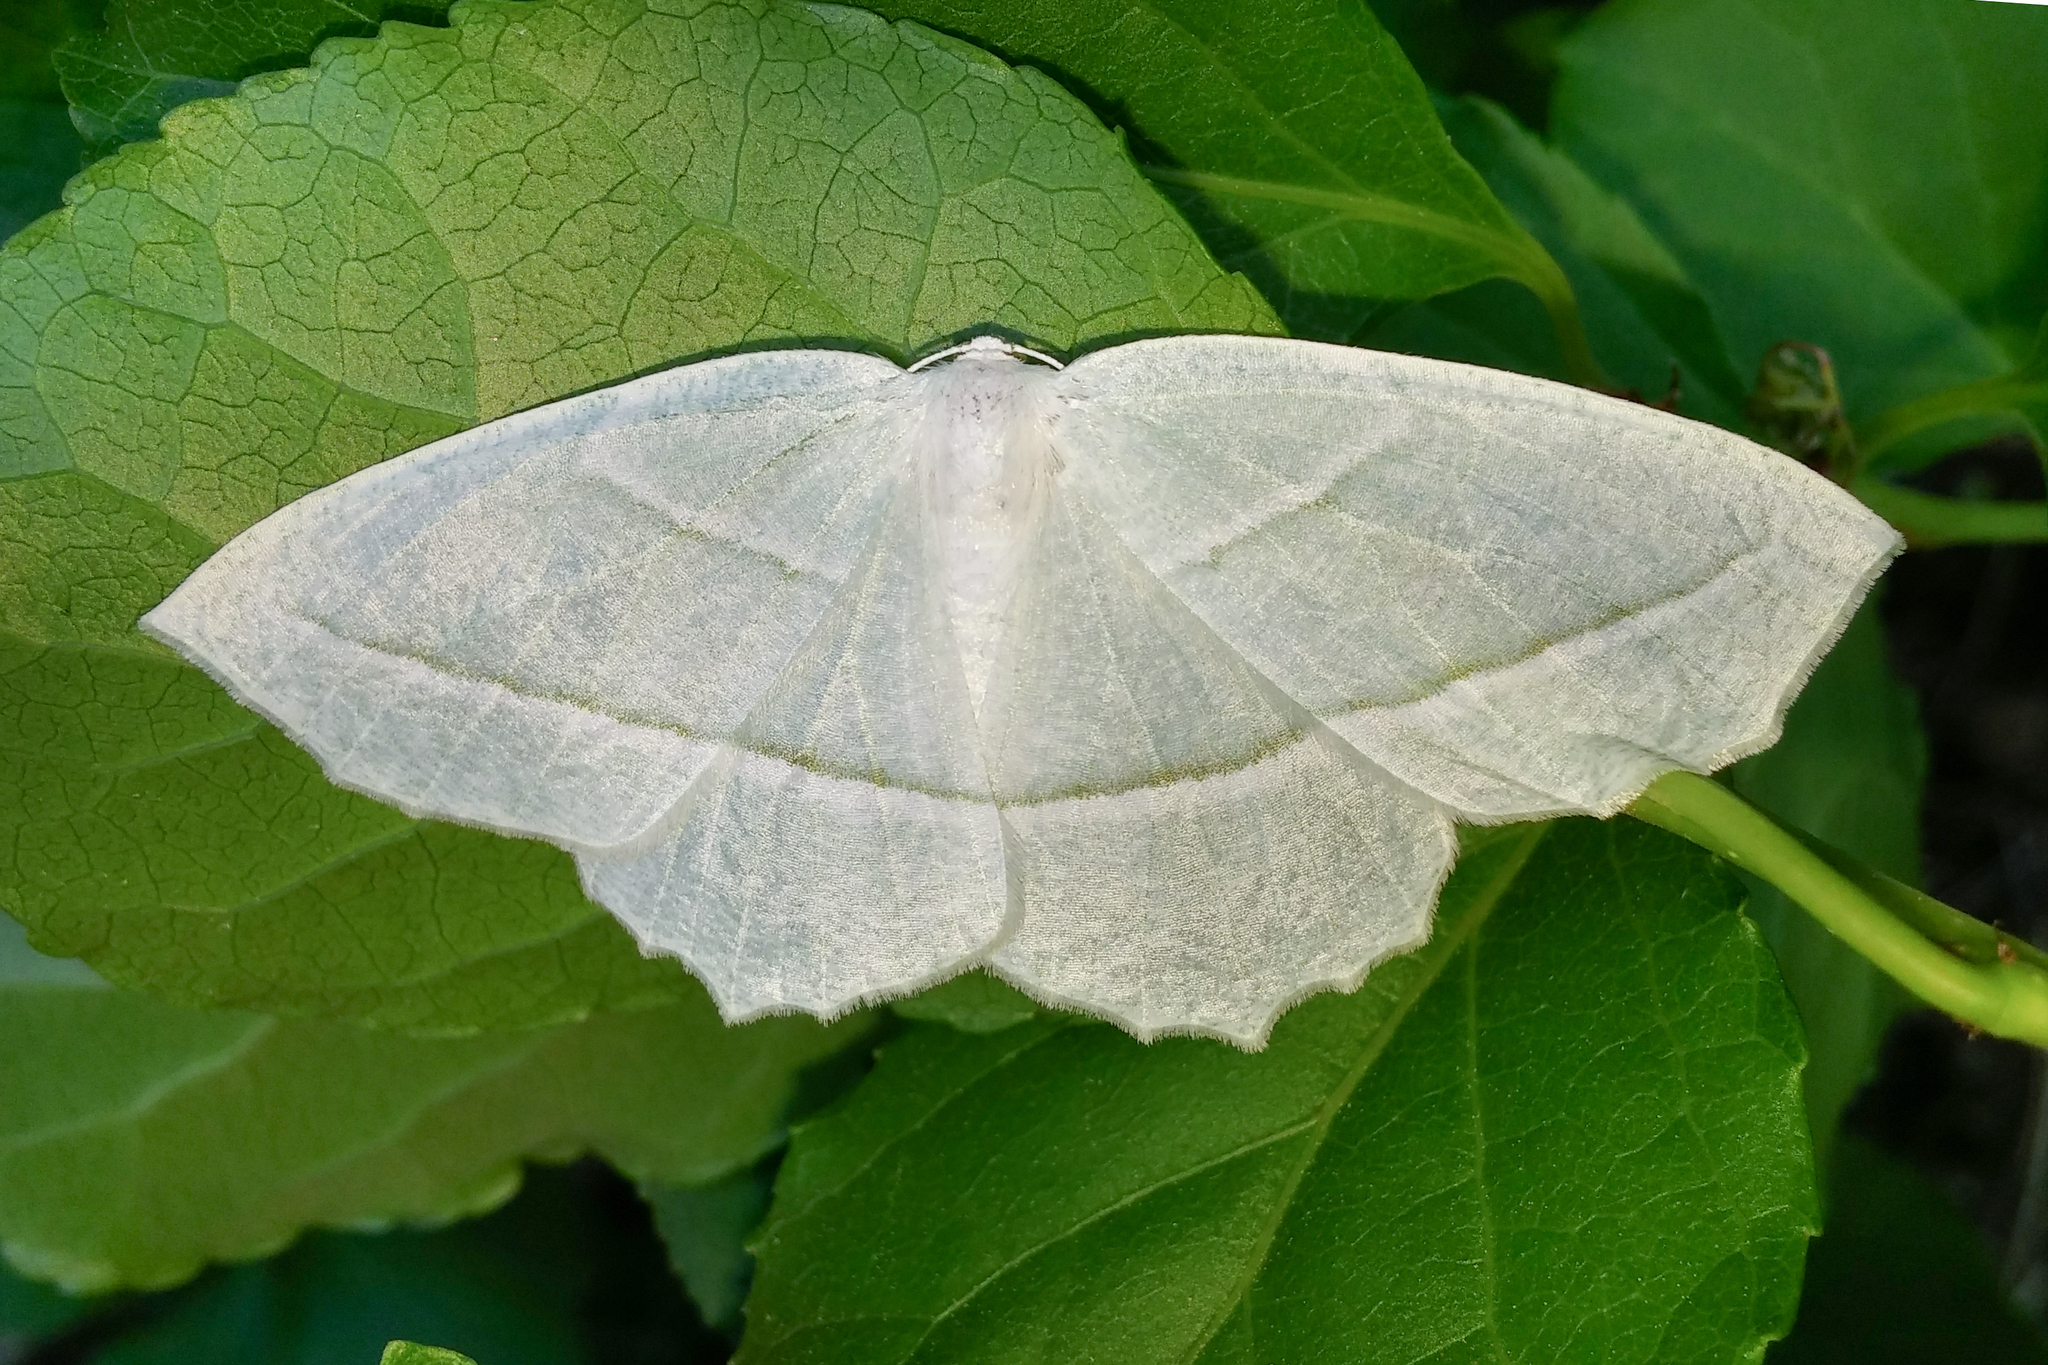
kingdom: Animalia
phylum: Arthropoda
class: Insecta
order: Lepidoptera
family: Geometridae
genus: Campaea
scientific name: Campaea perlata
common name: Fringed looper
